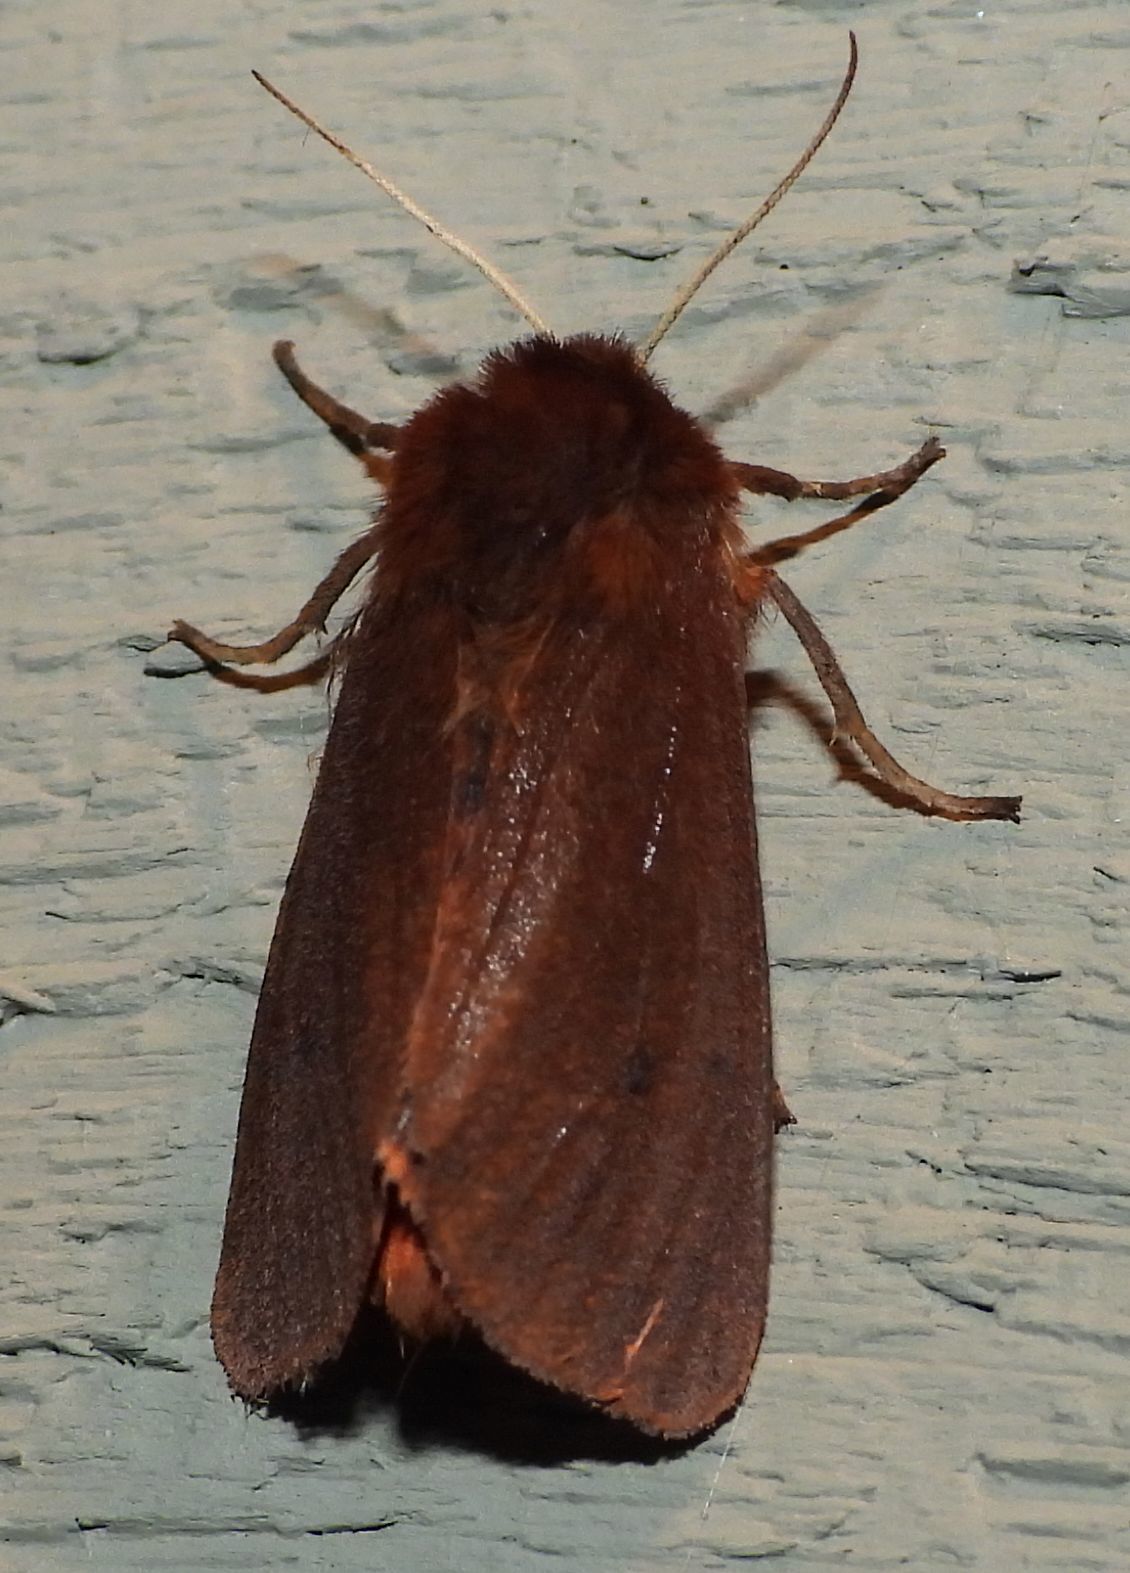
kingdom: Animalia
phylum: Arthropoda
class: Insecta
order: Lepidoptera
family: Erebidae
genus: Phragmatobia
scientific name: Phragmatobia fuliginosa
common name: Ruby tiger
